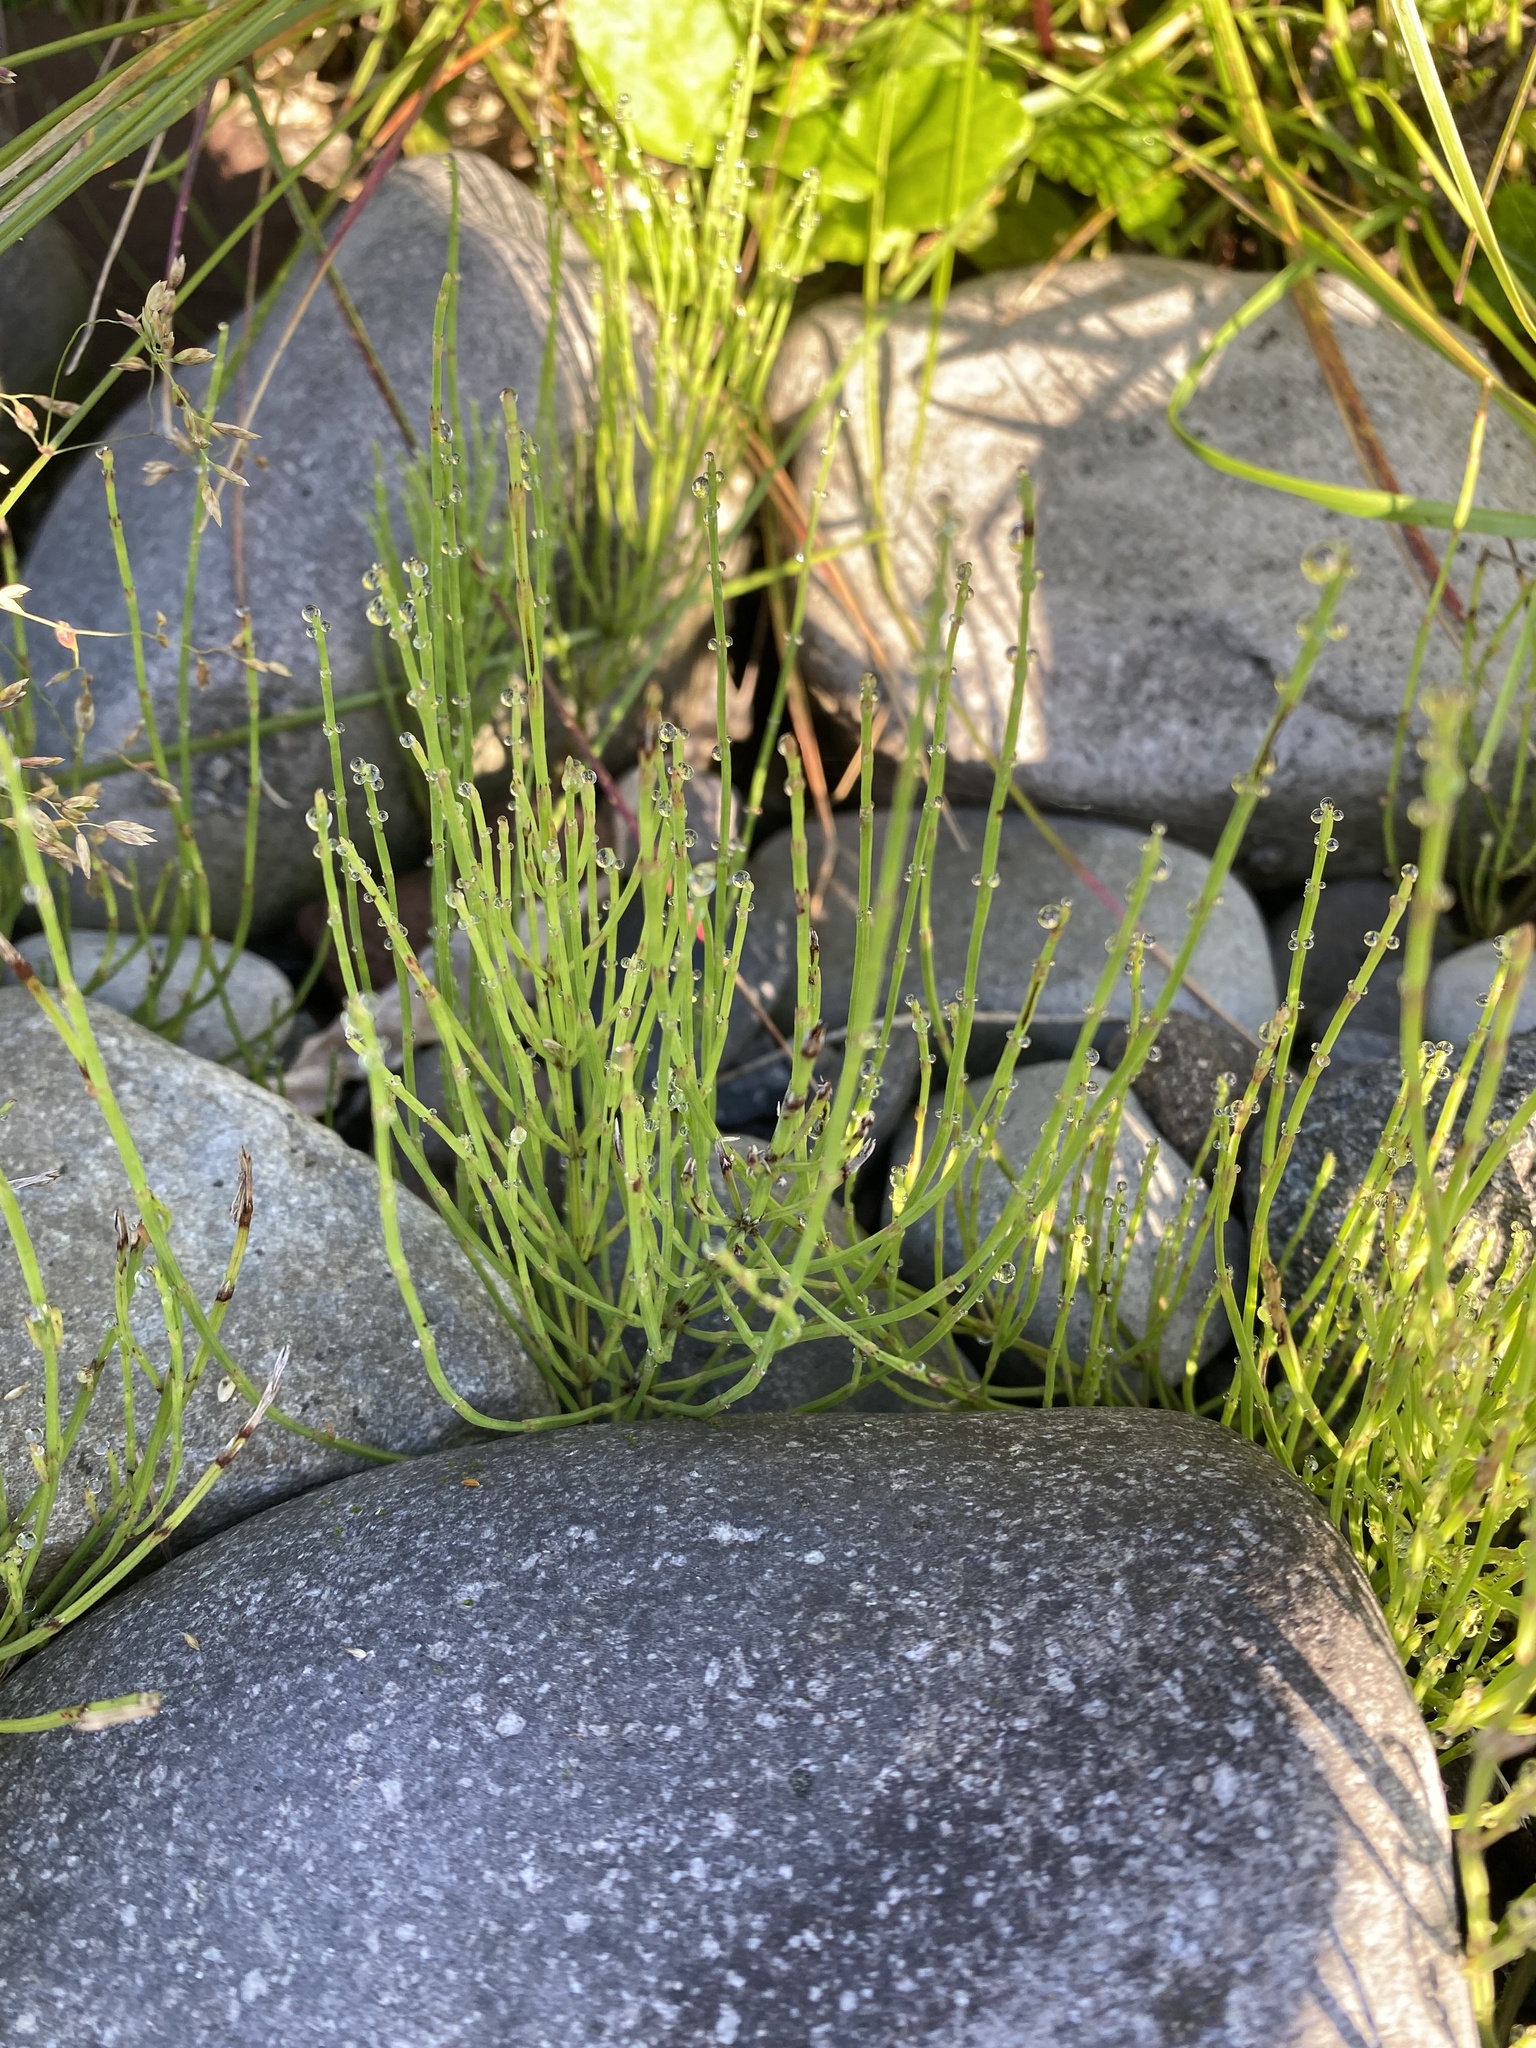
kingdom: Plantae
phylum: Tracheophyta
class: Polypodiopsida
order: Equisetales
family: Equisetaceae
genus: Equisetum
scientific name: Equisetum arvense
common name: Field horsetail
